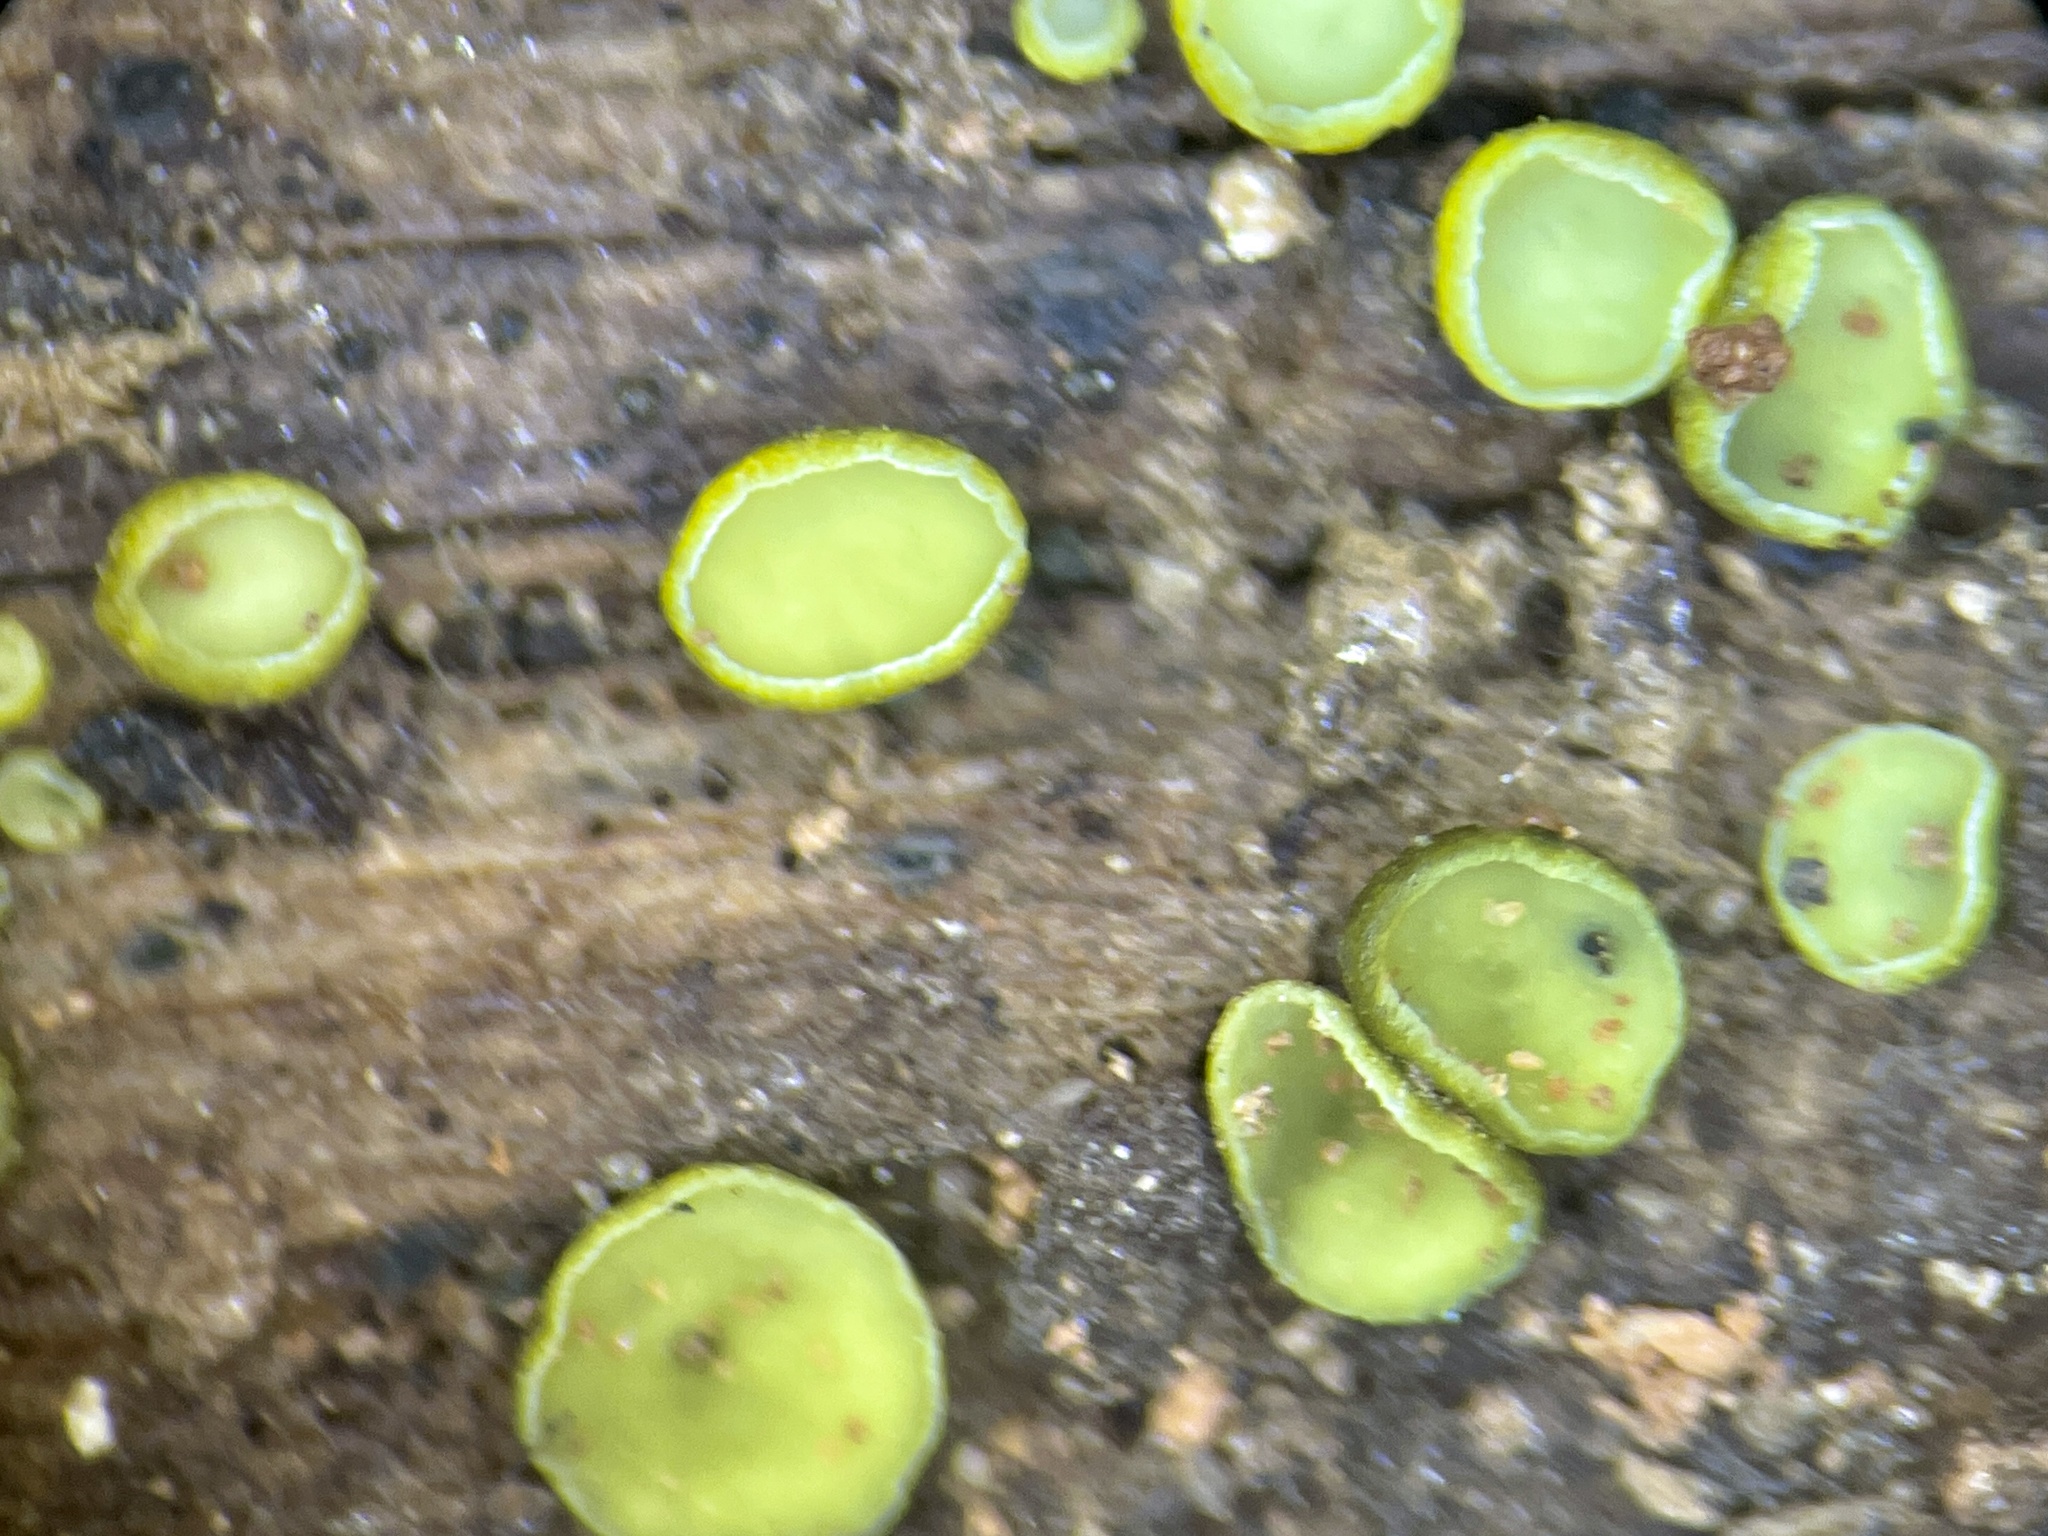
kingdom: Fungi
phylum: Ascomycota
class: Leotiomycetes
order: Helotiales
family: Chlorospleniaceae
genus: Chlorosplenium
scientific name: Chlorosplenium chlora
